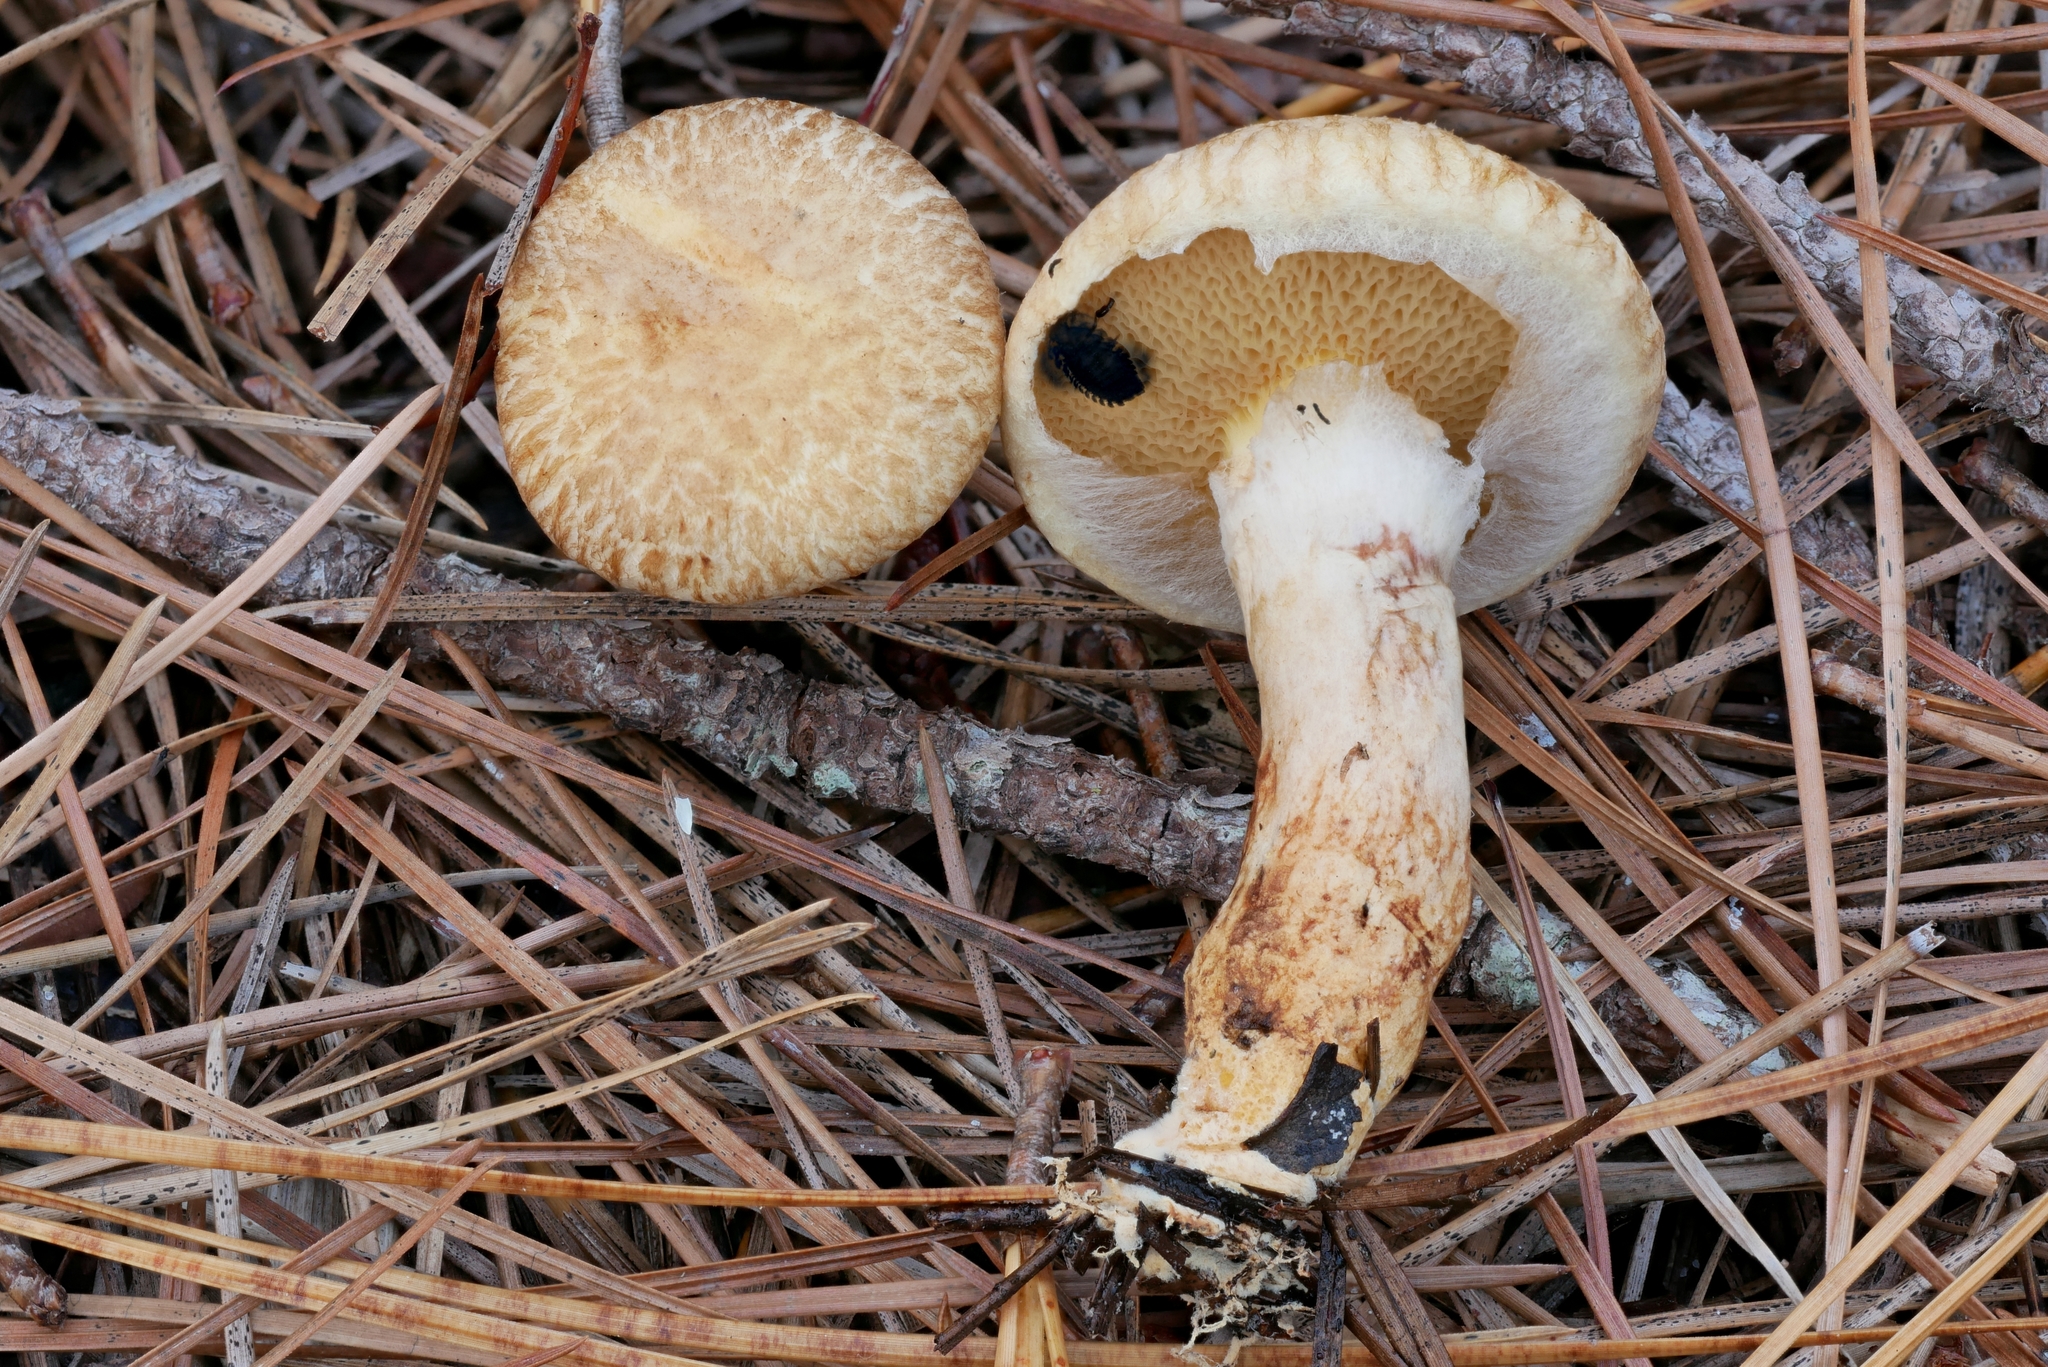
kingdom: Fungi
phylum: Basidiomycota
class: Agaricomycetes
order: Boletales
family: Suillaceae
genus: Suillus
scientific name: Suillus decipiens
